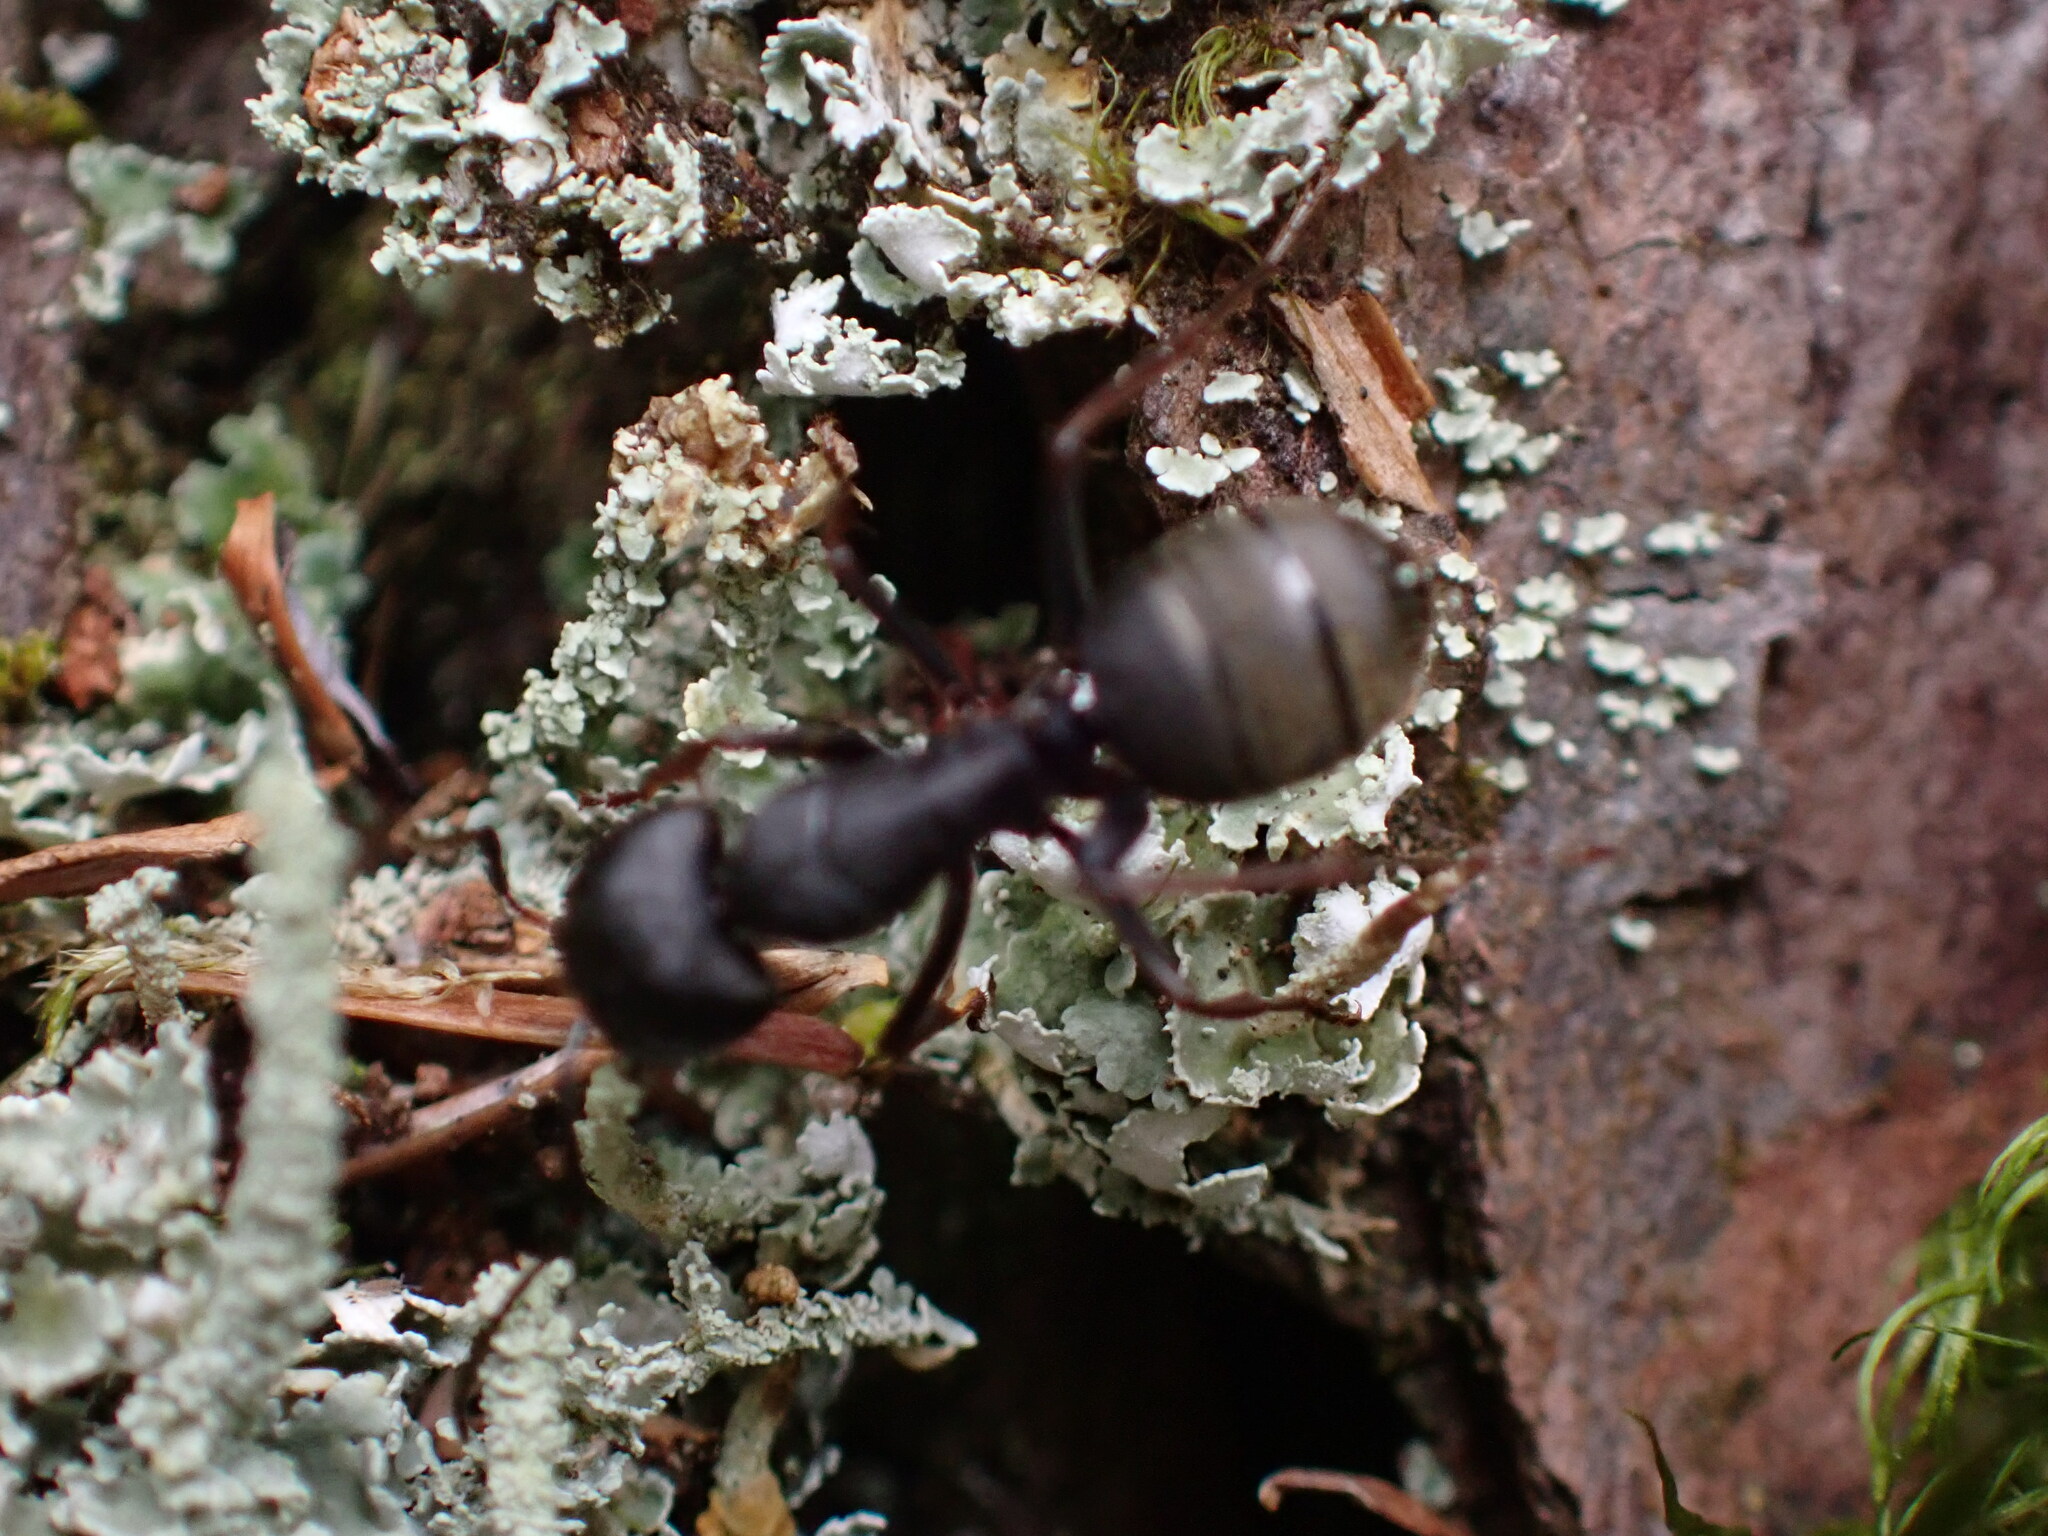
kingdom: Animalia
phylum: Arthropoda
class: Insecta
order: Hymenoptera
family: Formicidae
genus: Camponotus
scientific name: Camponotus modoc
